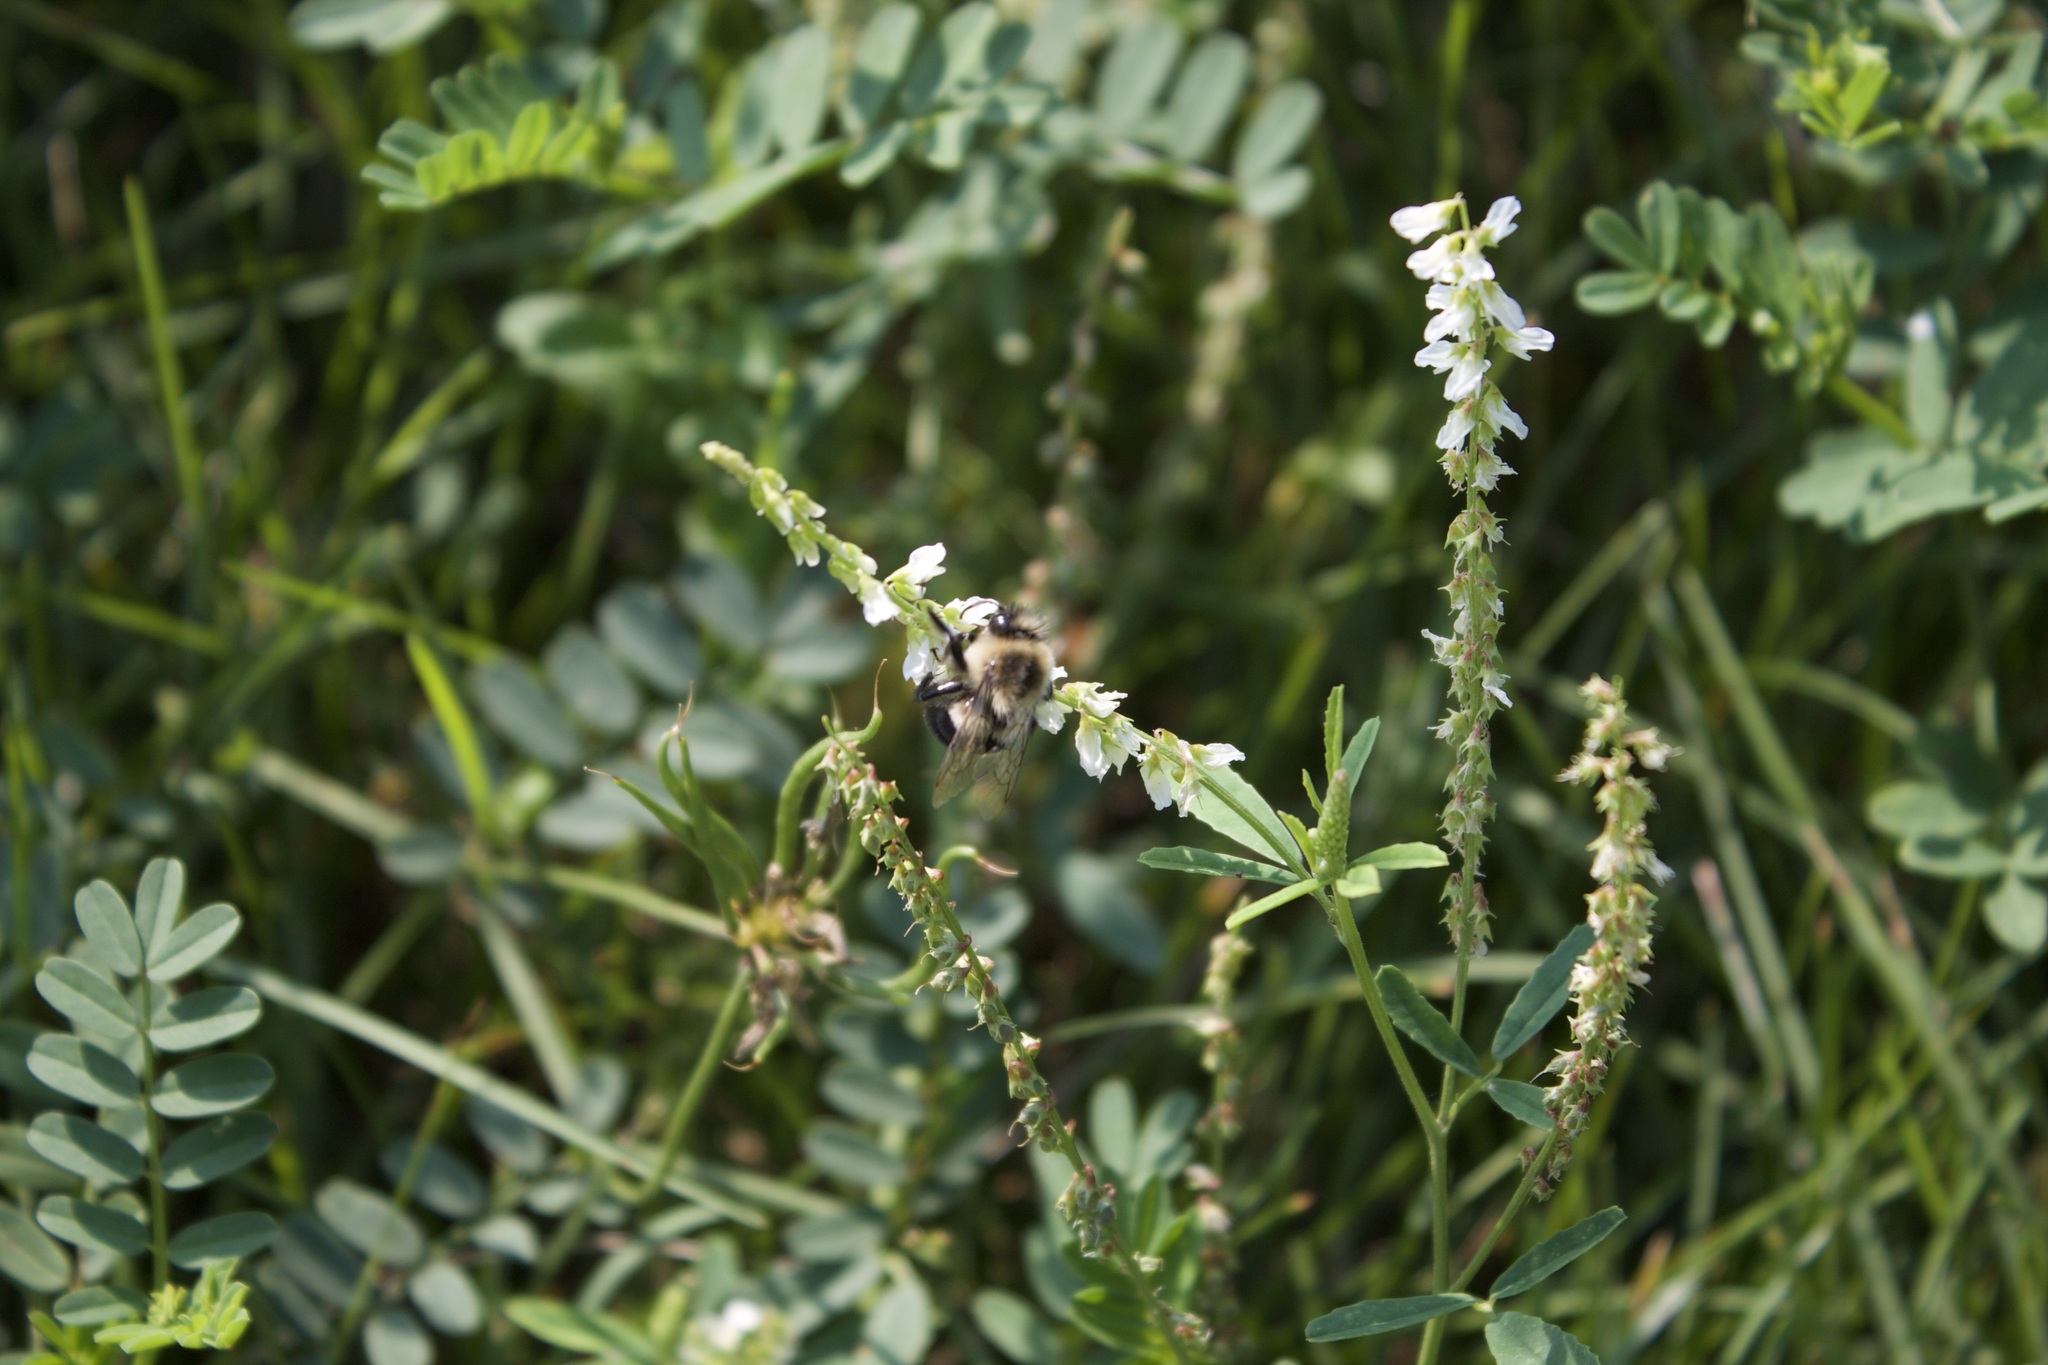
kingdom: Animalia
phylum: Arthropoda
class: Insecta
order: Hymenoptera
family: Apidae
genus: Bombus
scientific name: Bombus impatiens
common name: Common eastern bumble bee
